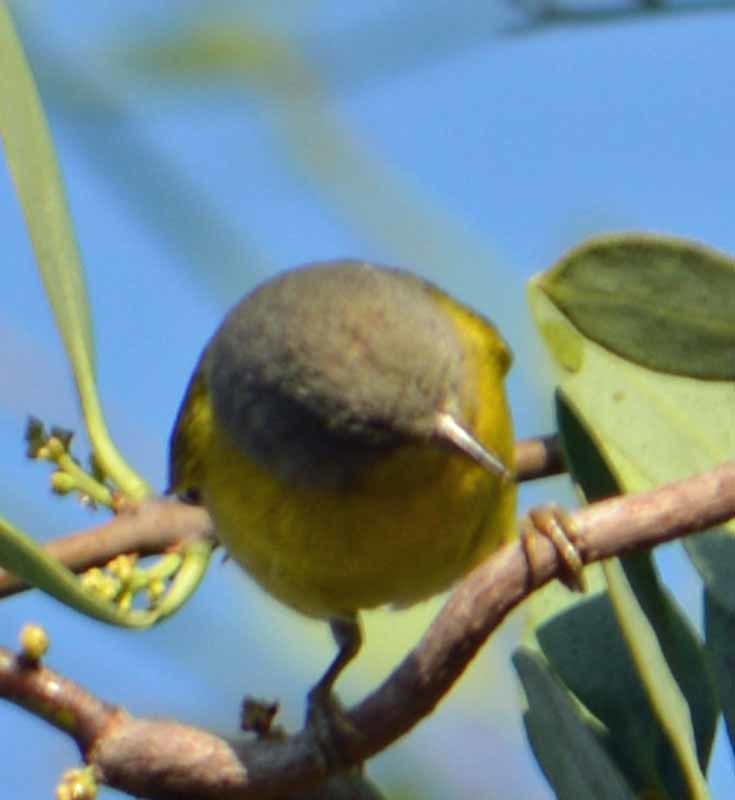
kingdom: Animalia
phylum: Chordata
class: Aves
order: Passeriformes
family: Parulidae
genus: Leiothlypis
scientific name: Leiothlypis ruficapilla
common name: Nashville warbler
